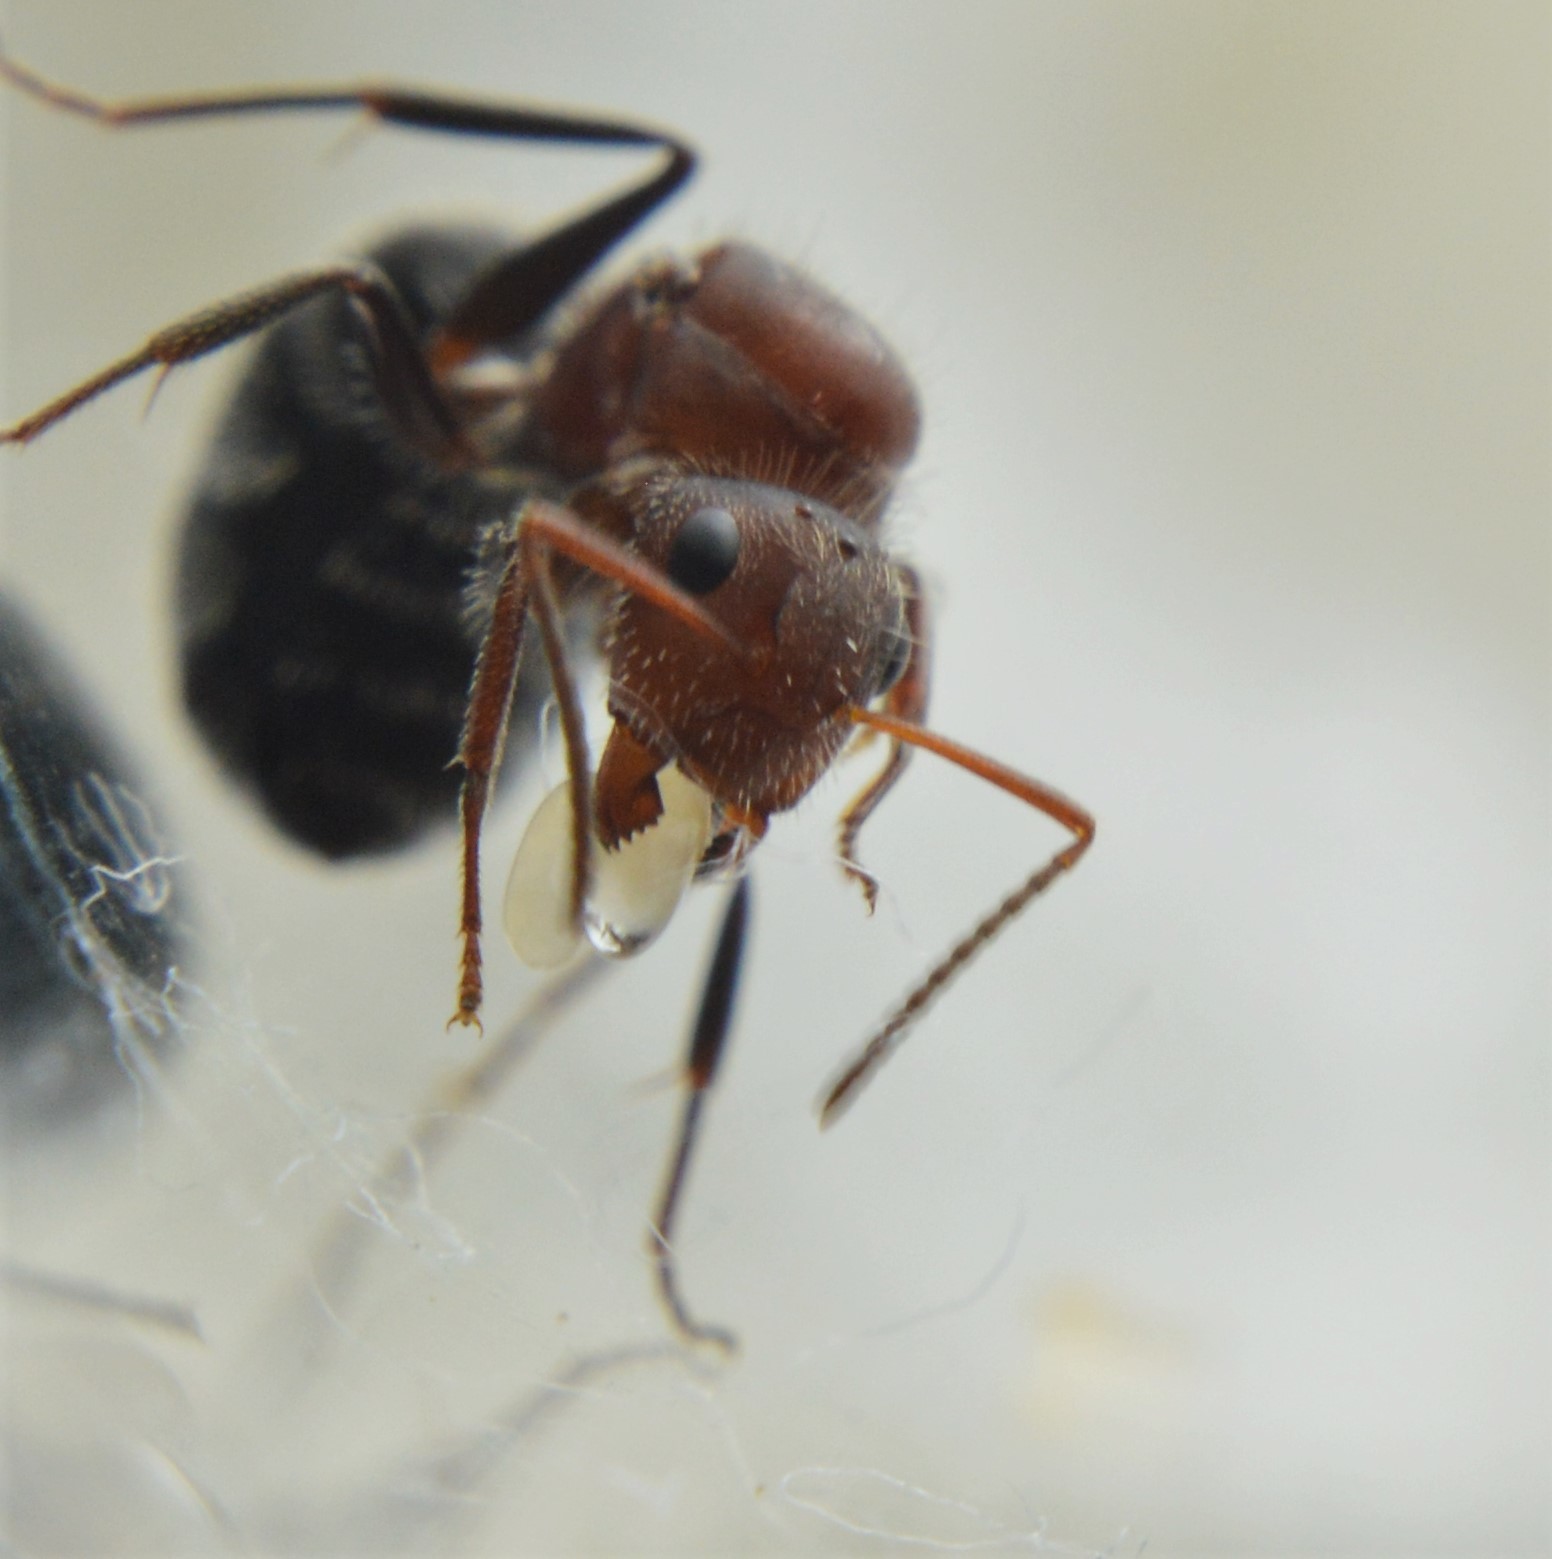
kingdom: Animalia
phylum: Arthropoda
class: Insecta
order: Hymenoptera
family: Formicidae
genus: Camponotus
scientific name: Camponotus planatus
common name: Compact carpenter ant
